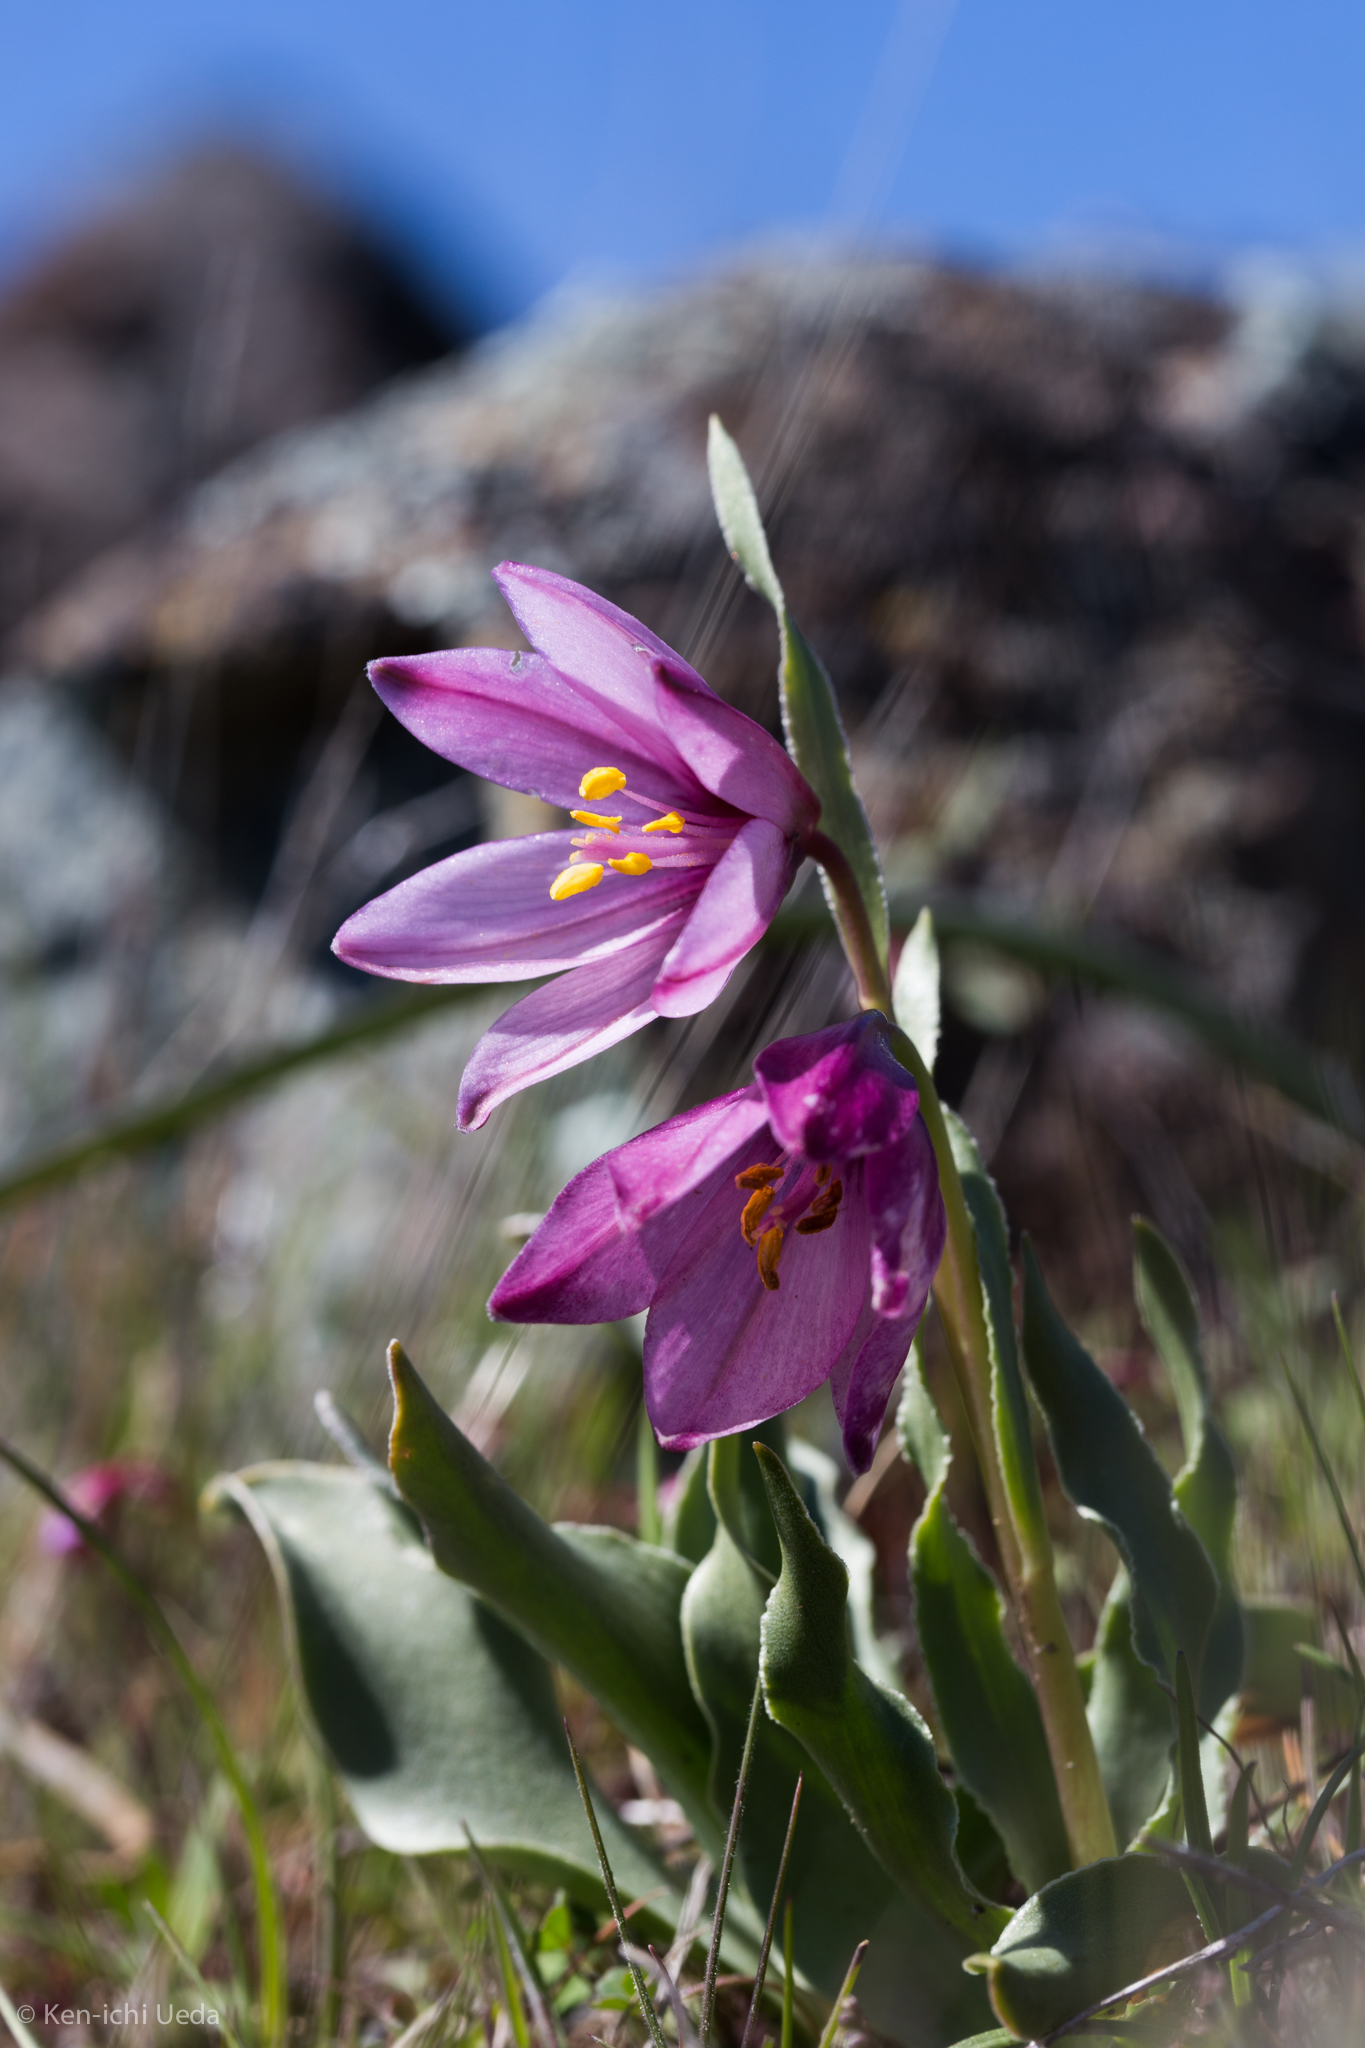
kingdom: Plantae
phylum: Tracheophyta
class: Liliopsida
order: Liliales
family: Liliaceae
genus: Fritillaria
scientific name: Fritillaria pluriflora
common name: Adobe-lily
